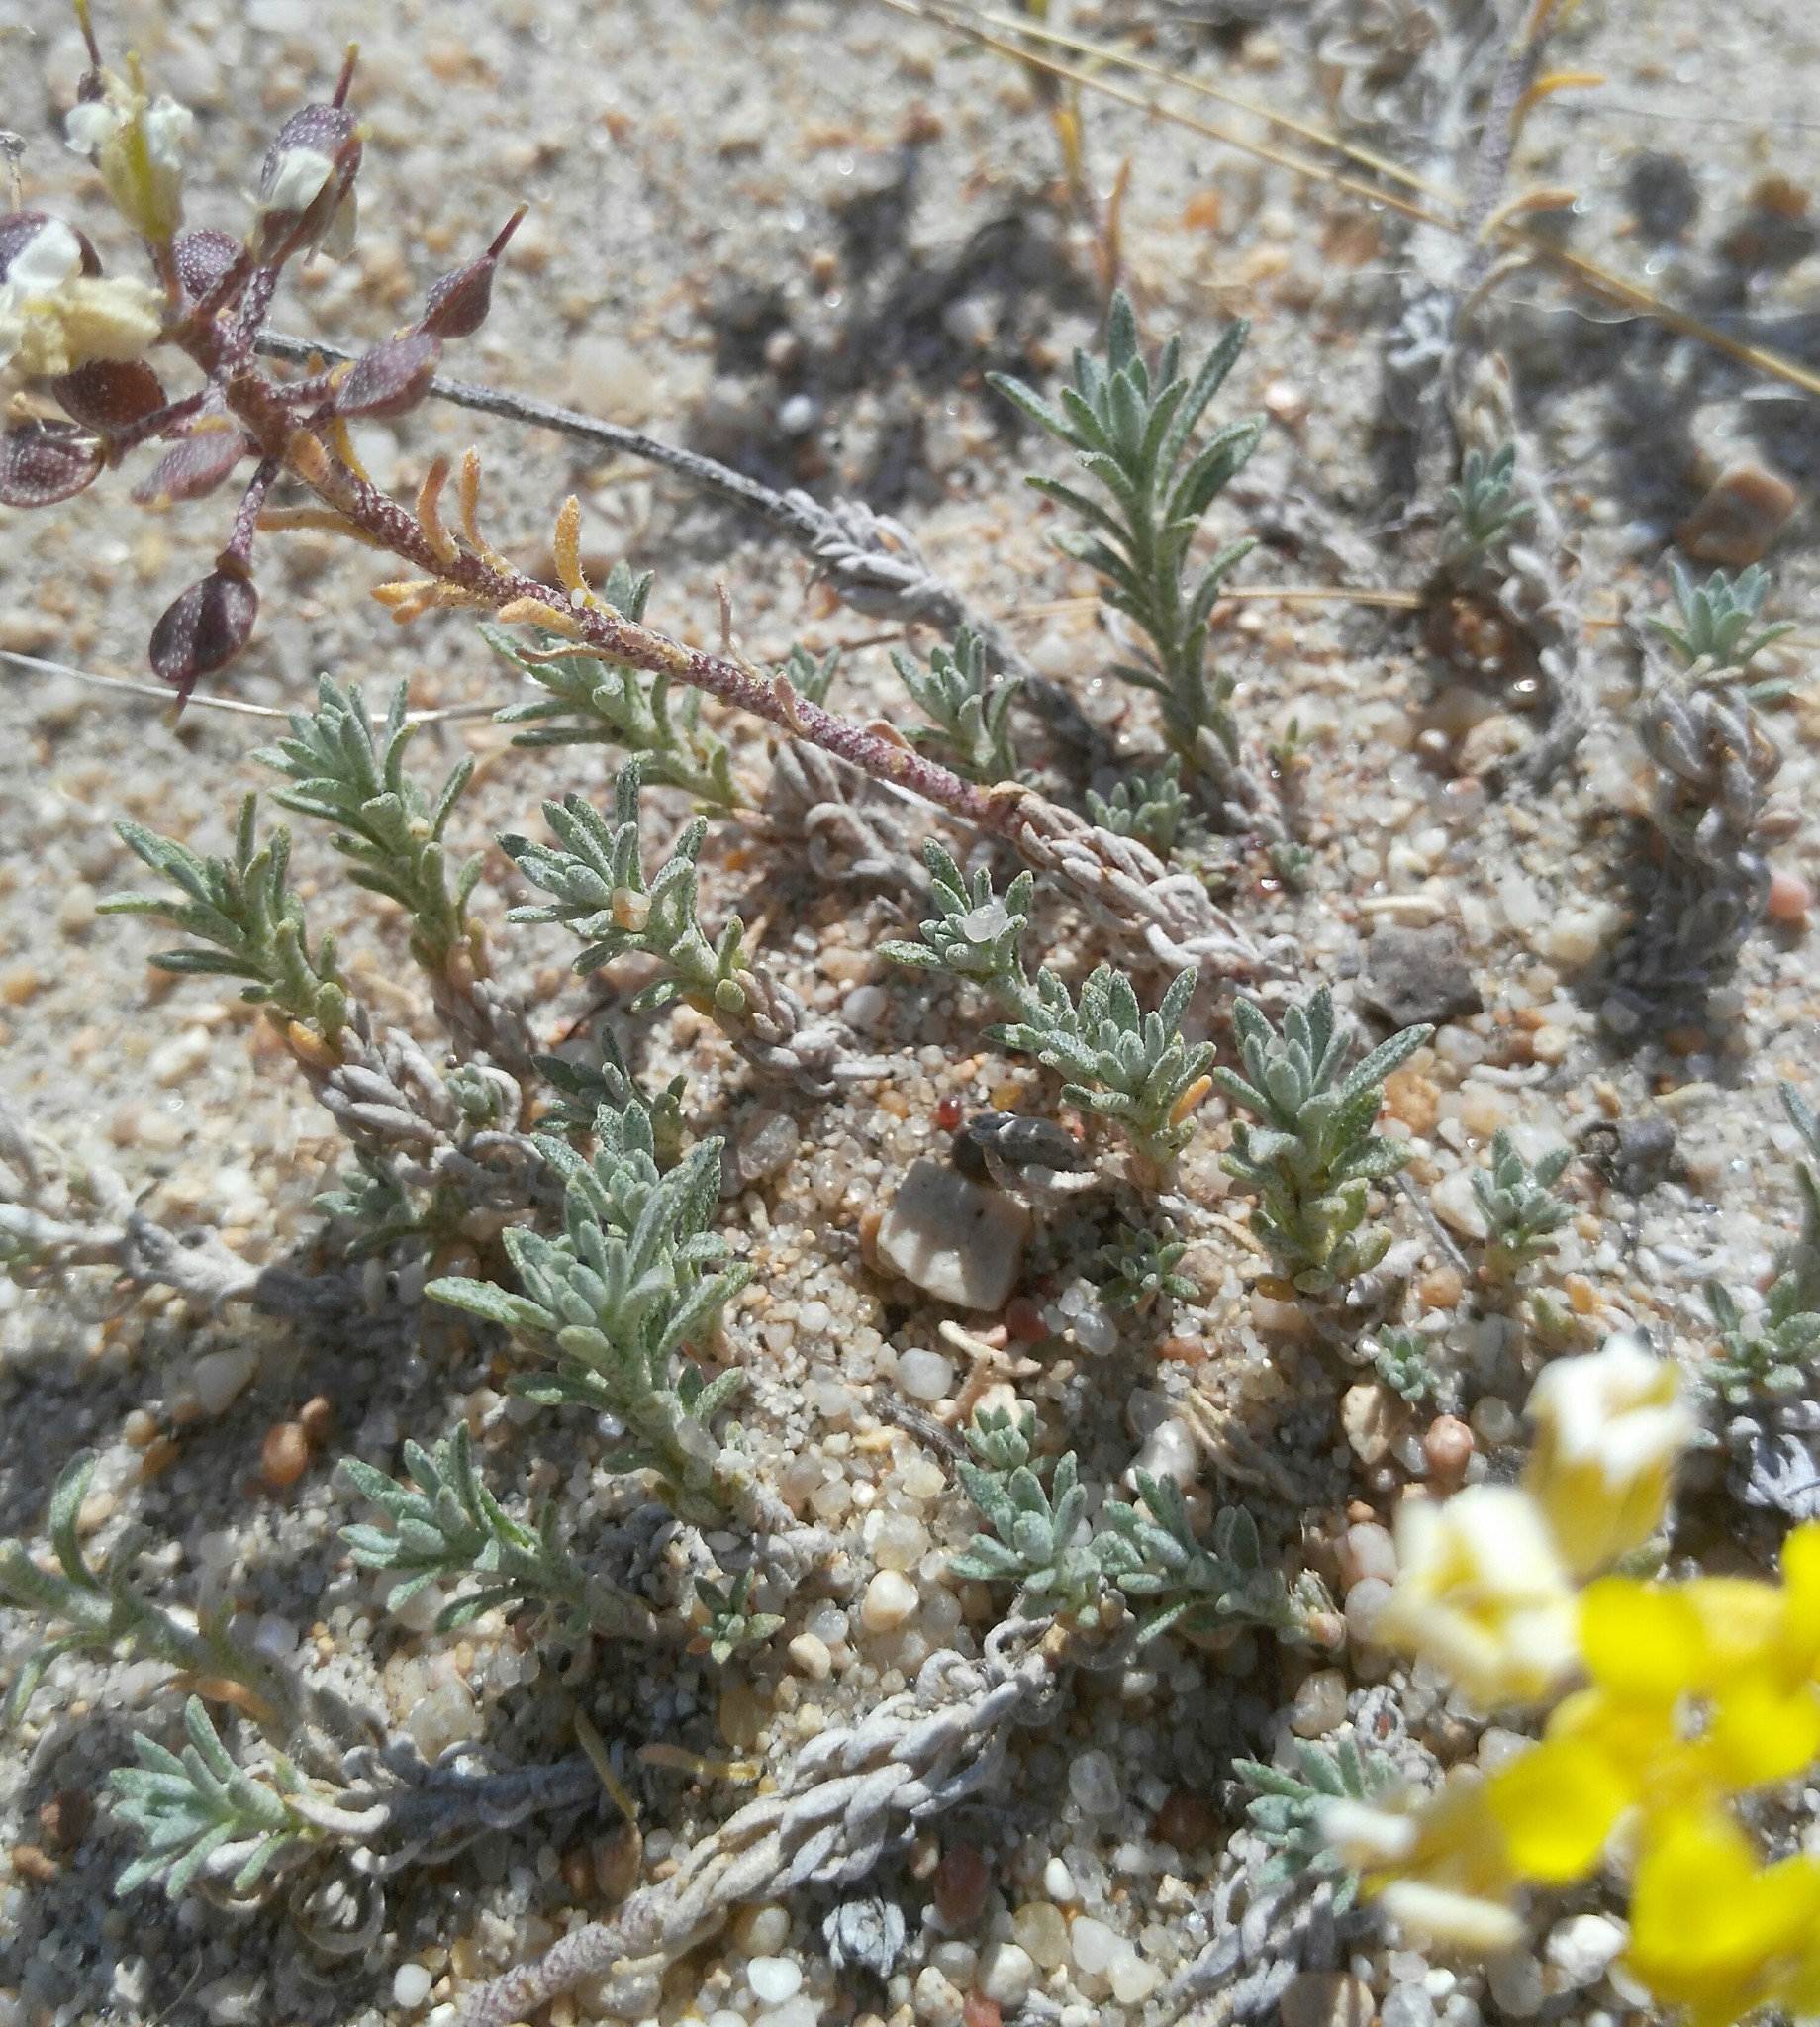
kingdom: Plantae
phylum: Tracheophyta
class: Magnoliopsida
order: Brassicales
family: Brassicaceae
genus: Alyssum
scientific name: Alyssum lenense
